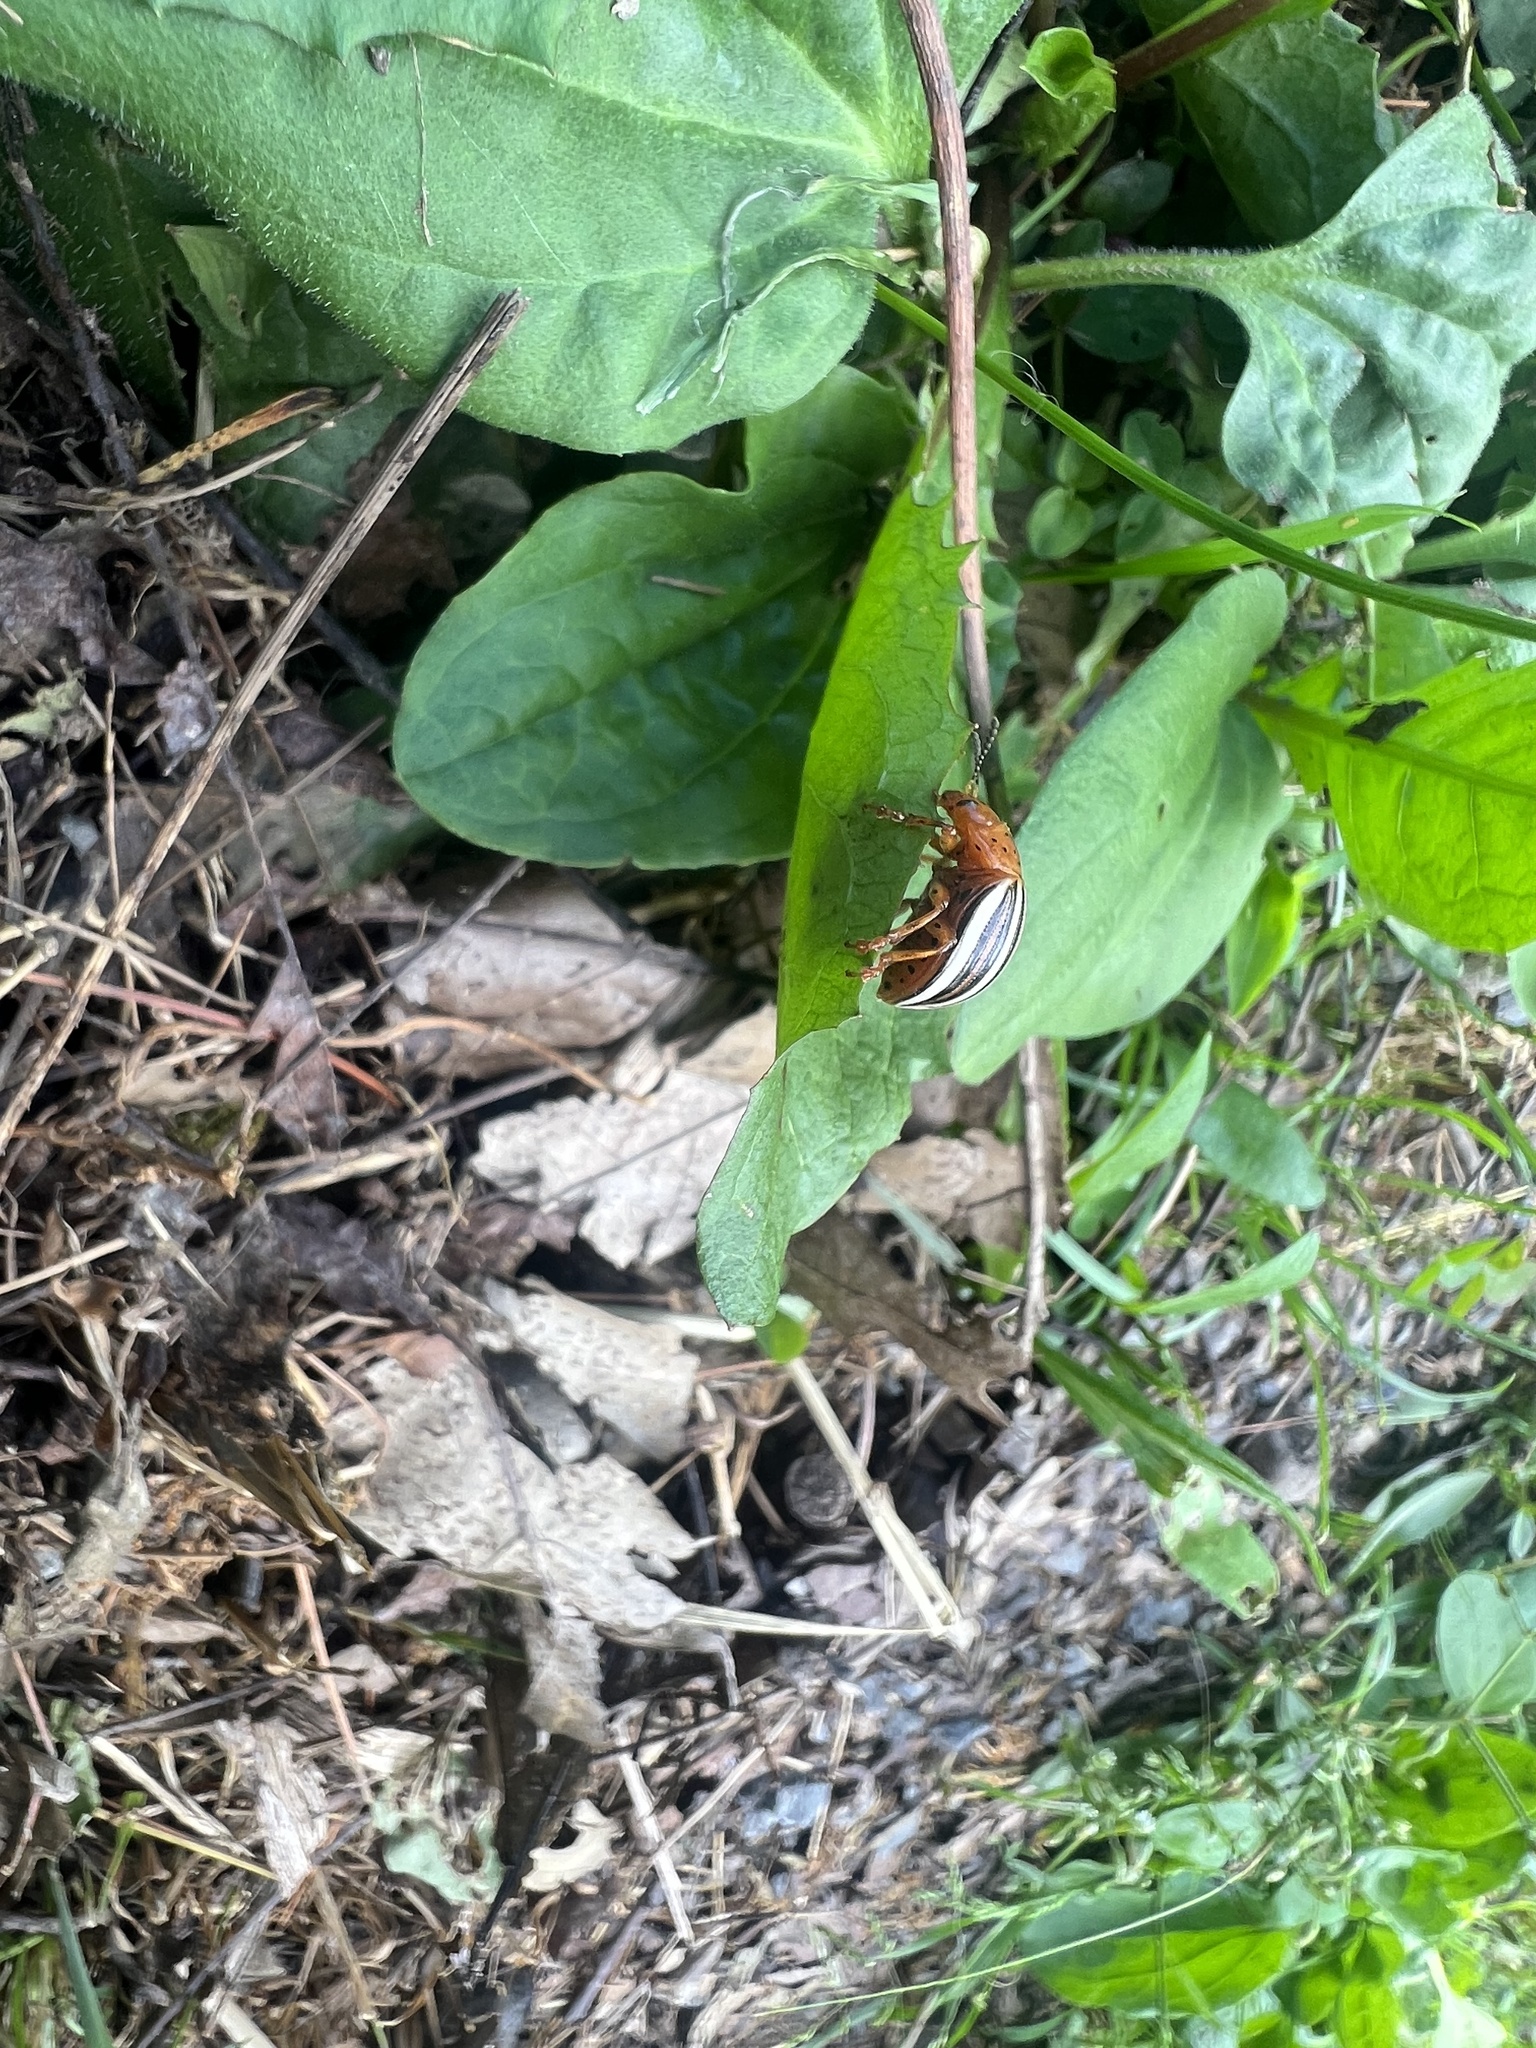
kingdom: Animalia
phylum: Arthropoda
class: Insecta
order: Coleoptera
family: Chrysomelidae
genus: Leptinotarsa
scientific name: Leptinotarsa juncta
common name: False potato beetle
